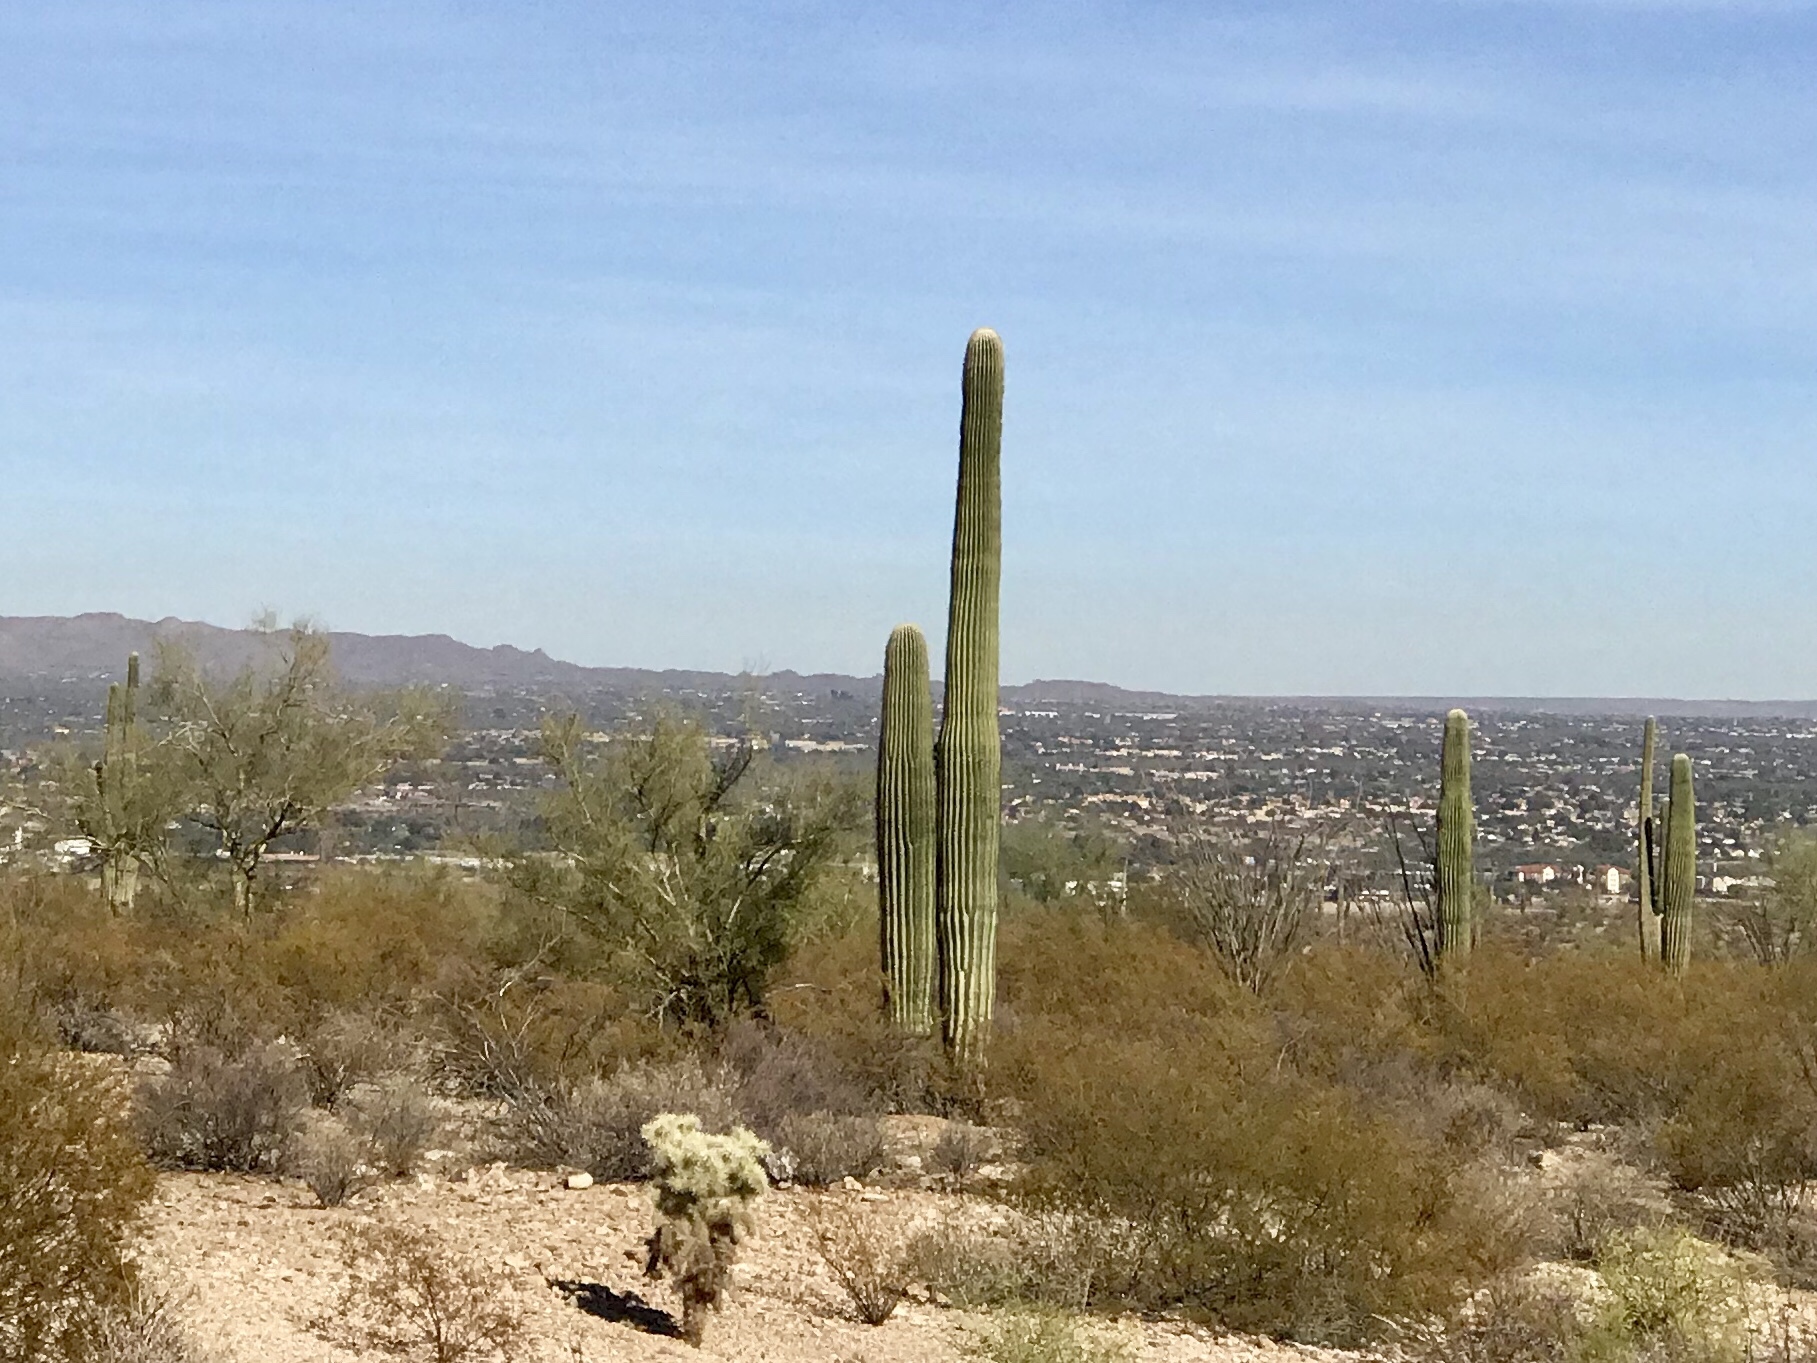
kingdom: Plantae
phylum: Tracheophyta
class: Magnoliopsida
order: Caryophyllales
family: Cactaceae
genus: Carnegiea
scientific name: Carnegiea gigantea
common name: Saguaro
